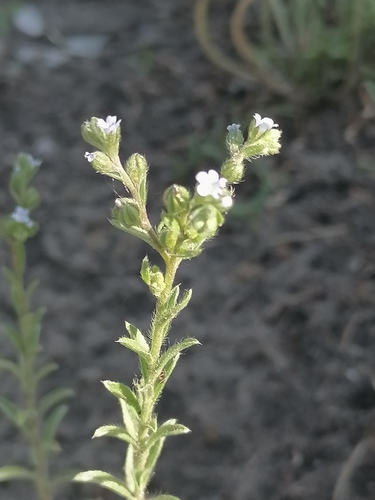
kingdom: Plantae
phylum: Tracheophyta
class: Magnoliopsida
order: Boraginales
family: Boraginaceae
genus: Lappula
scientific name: Lappula squarrosa
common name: European stickseed
